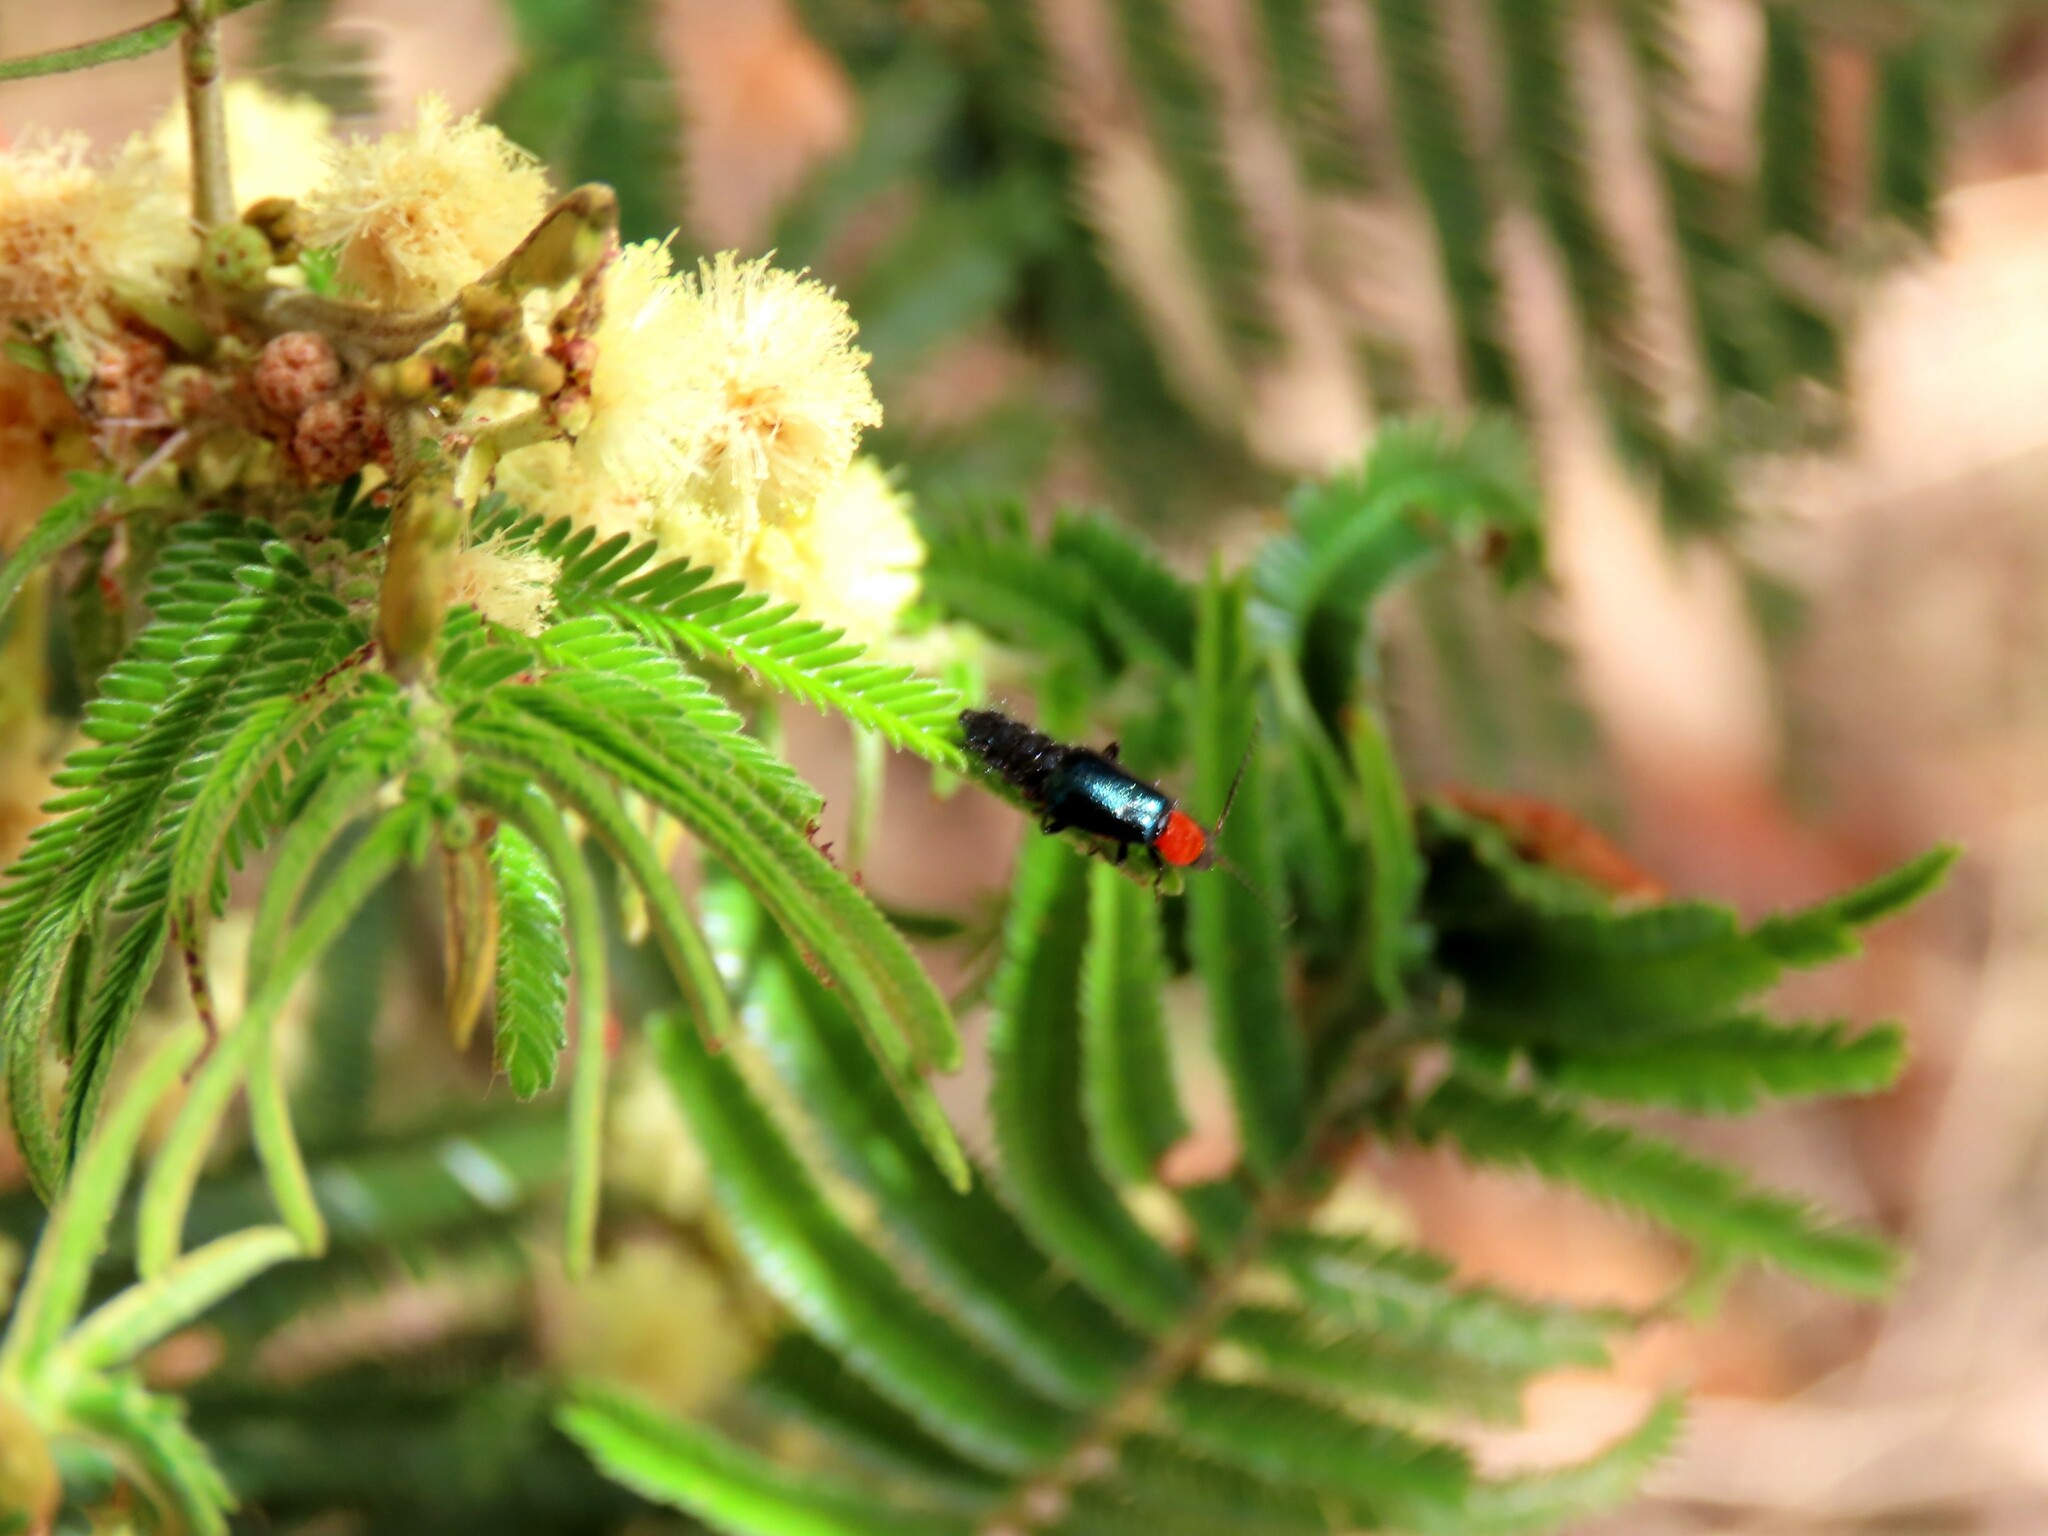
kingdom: Animalia
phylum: Arthropoda
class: Insecta
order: Coleoptera
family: Melyridae
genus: Carphurus
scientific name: Carphurus
